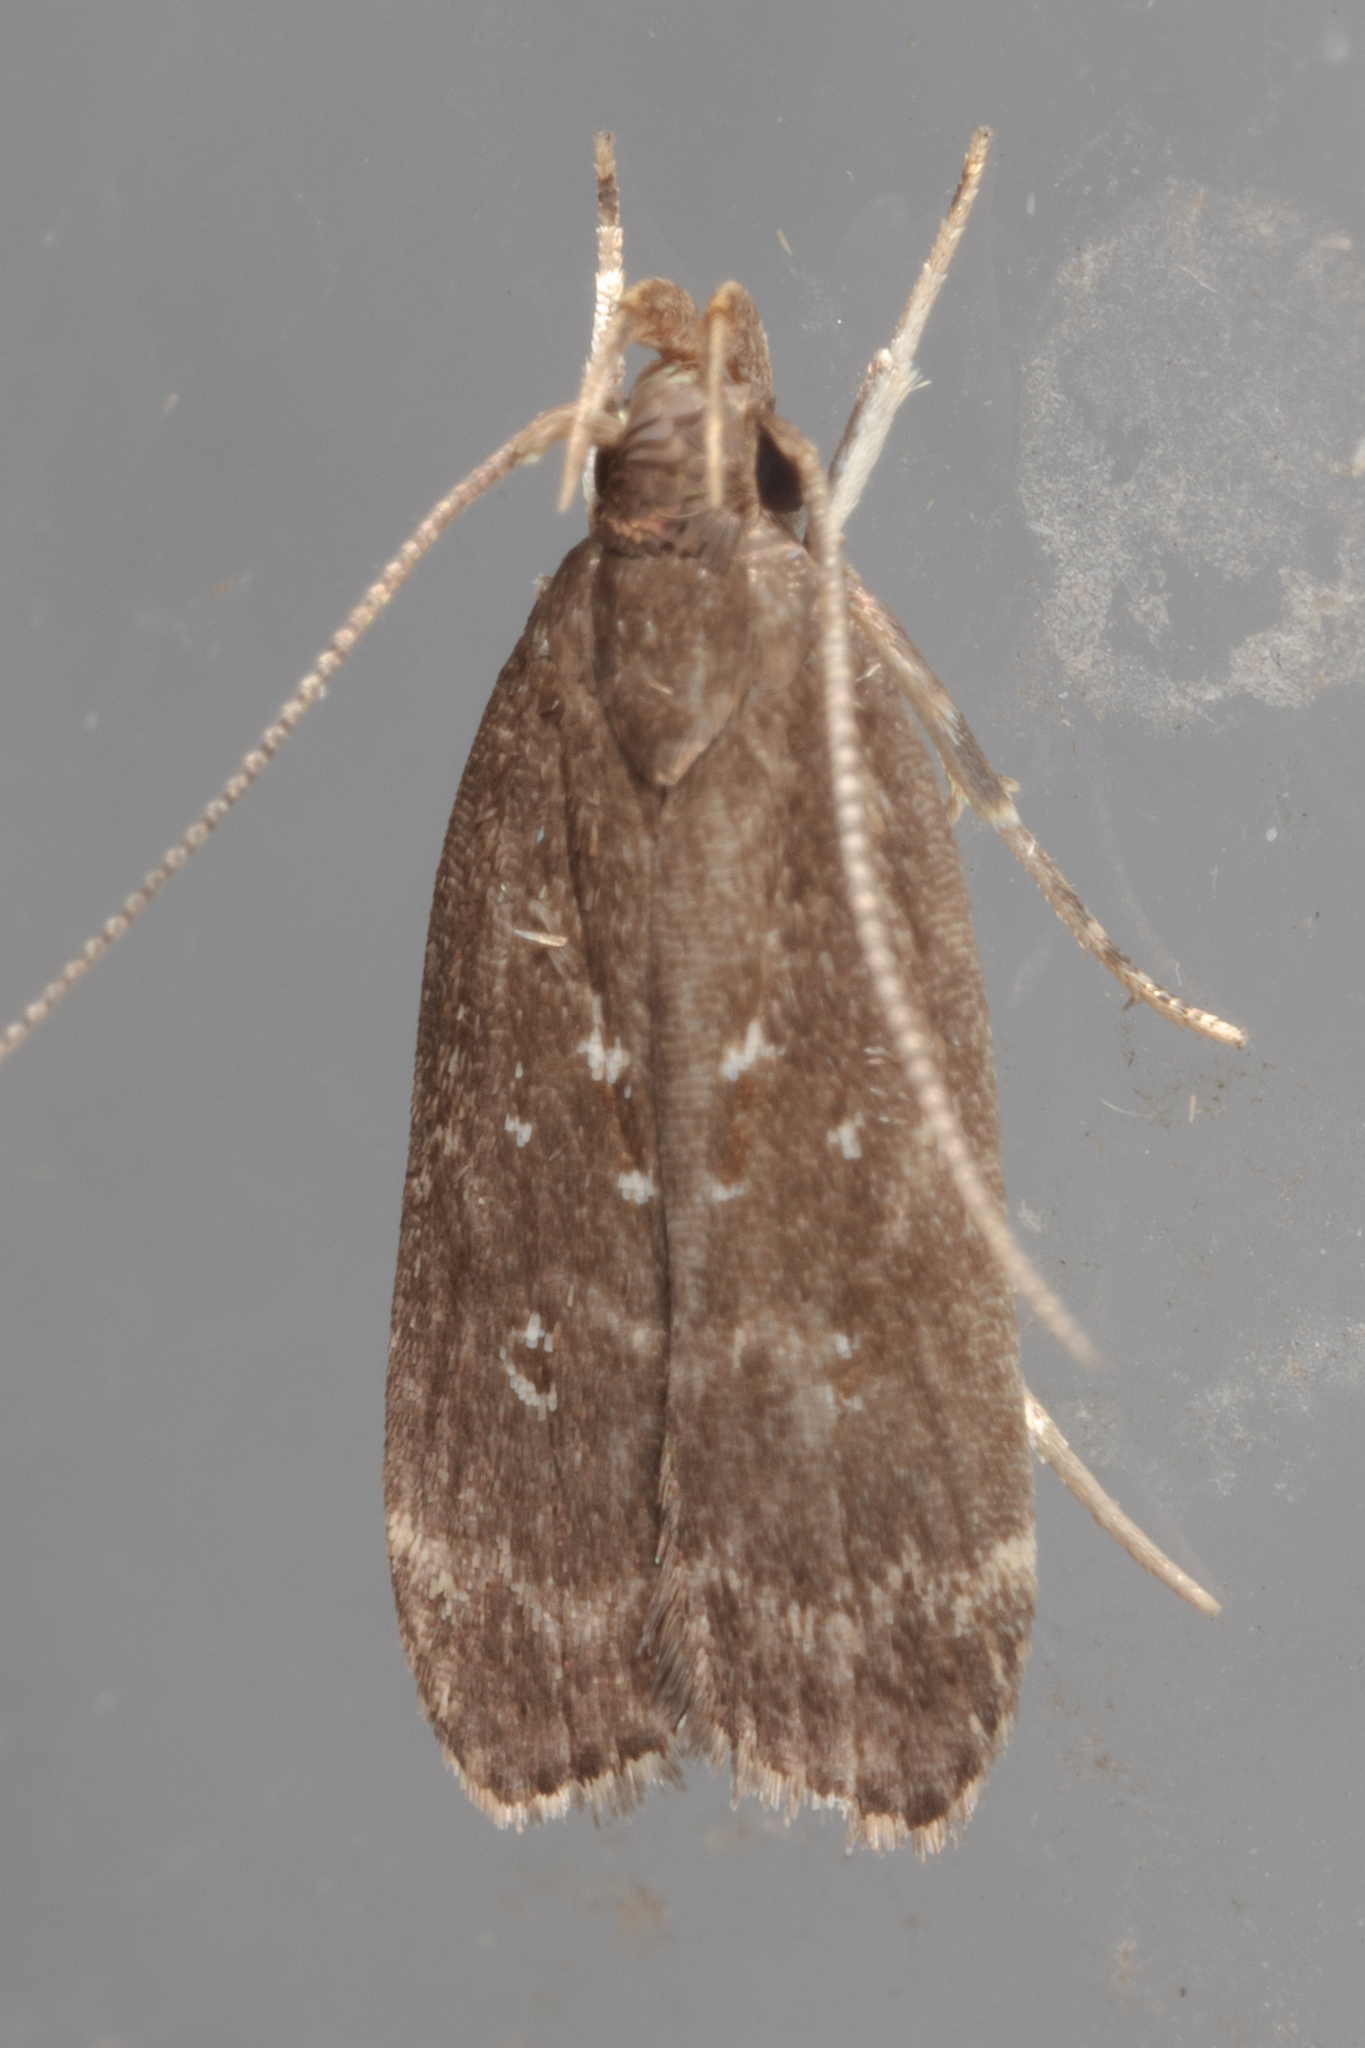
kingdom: Animalia
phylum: Arthropoda
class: Insecta
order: Lepidoptera
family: Gelechiidae
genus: Helcystogramma
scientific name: Helcystogramma melantherella
